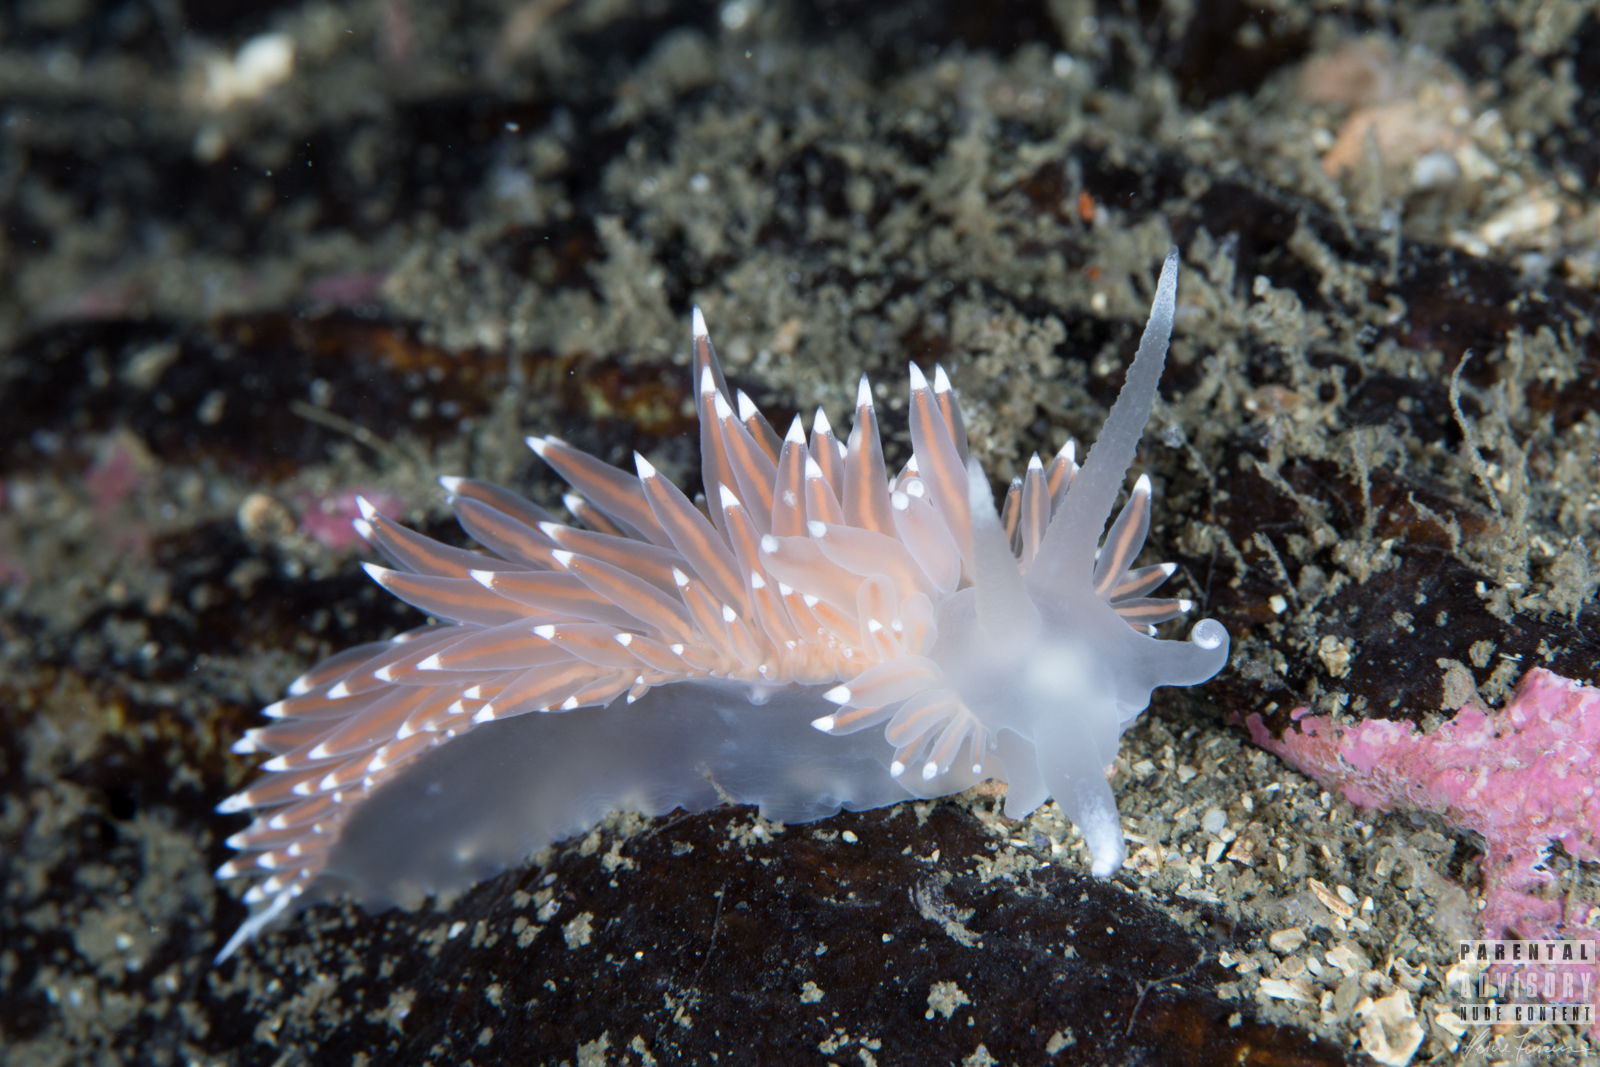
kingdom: Animalia
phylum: Mollusca
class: Gastropoda
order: Nudibranchia
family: Coryphellidae
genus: Coryphella
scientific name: Coryphella browni
